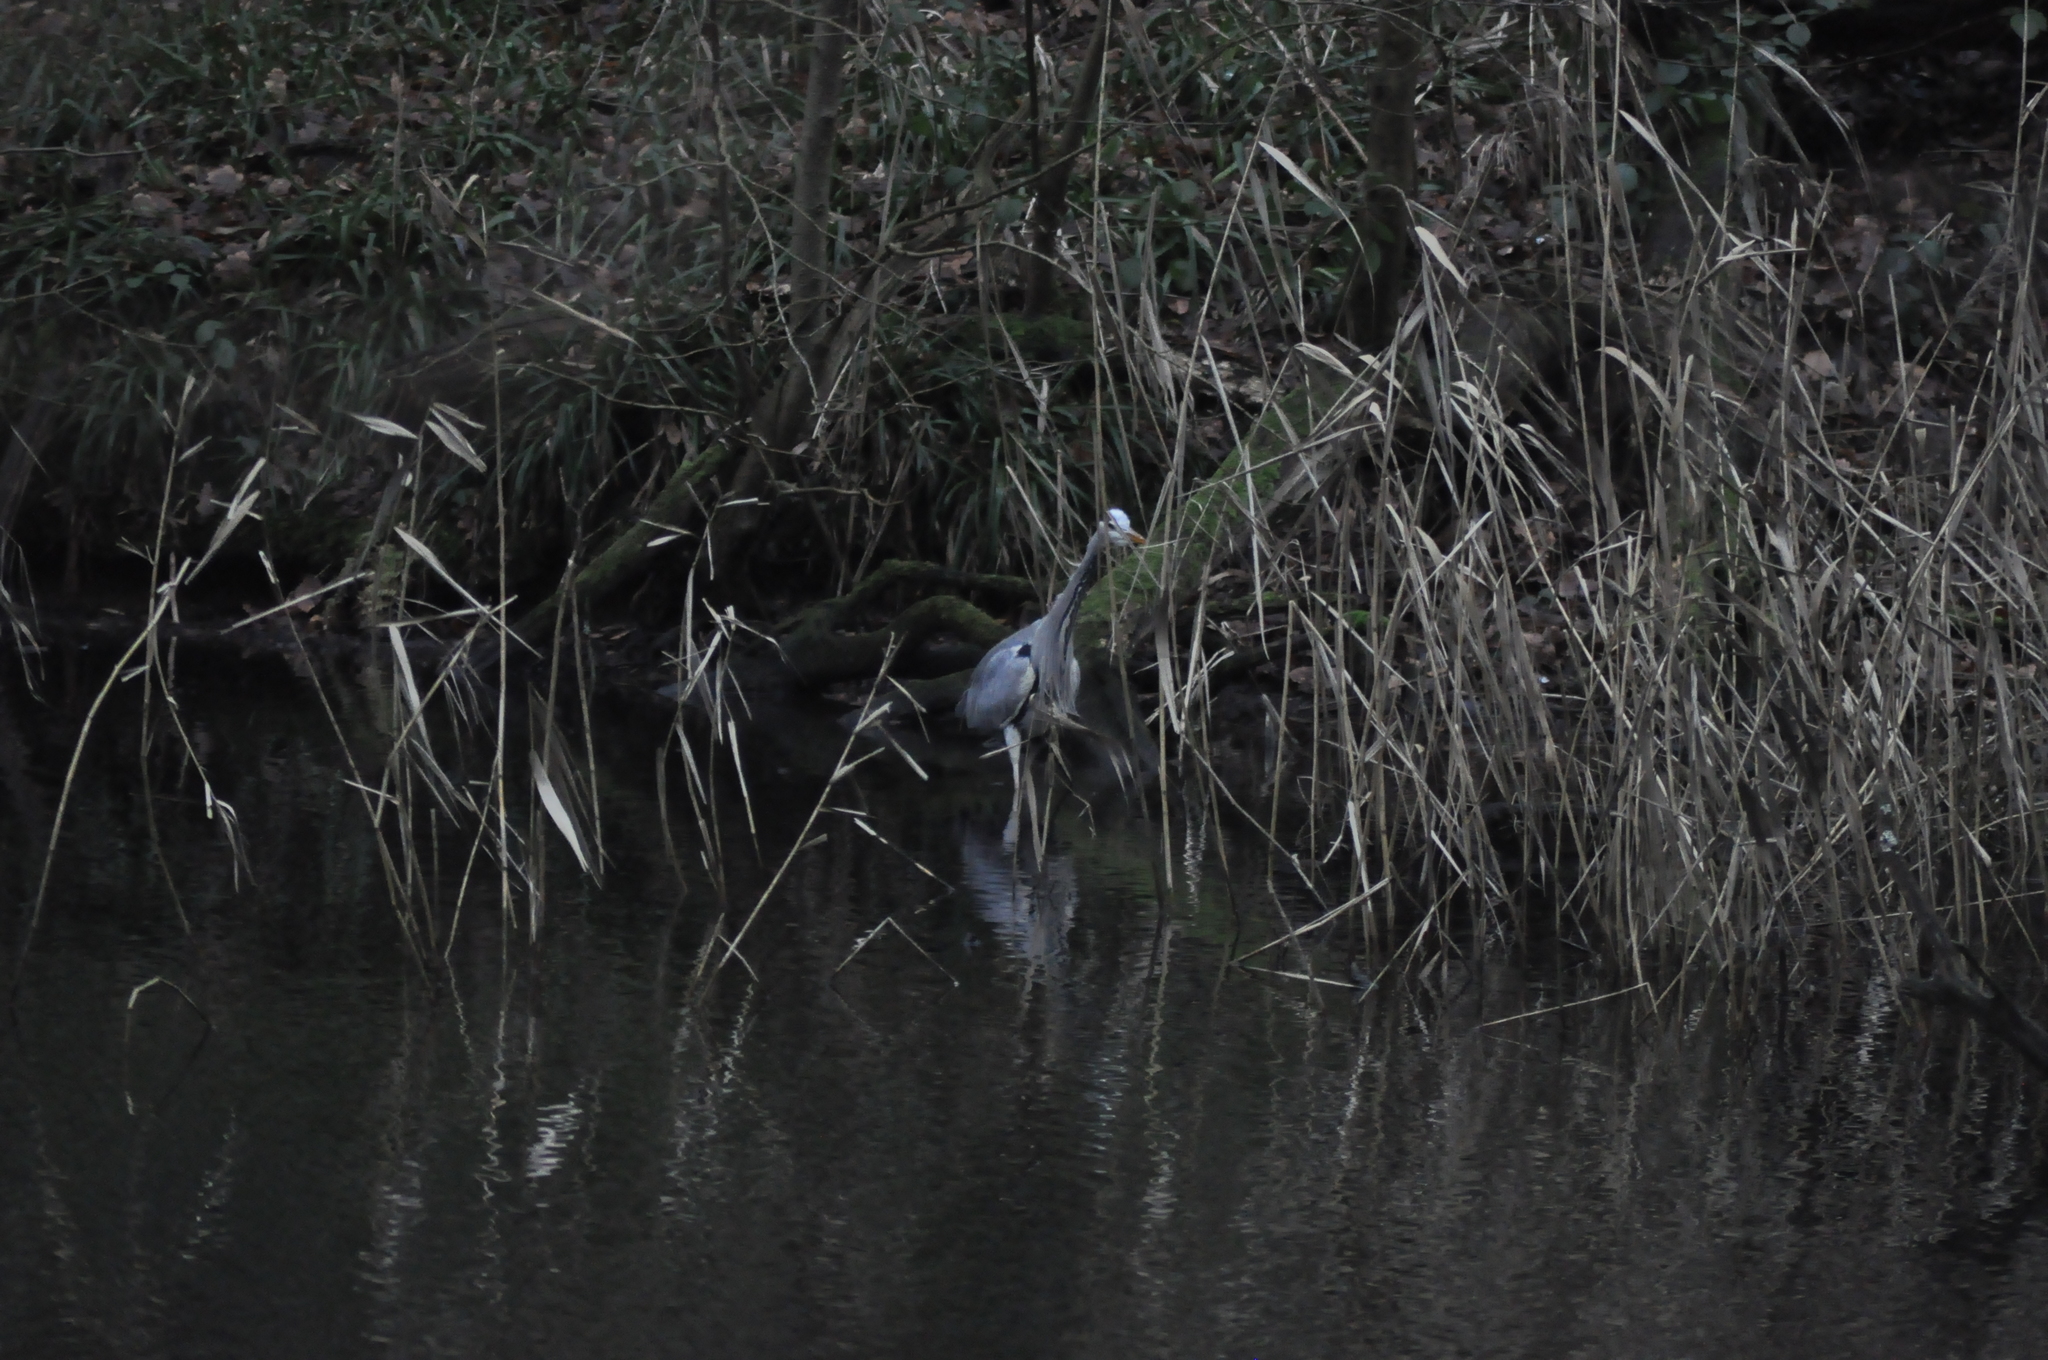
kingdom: Animalia
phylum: Chordata
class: Aves
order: Pelecaniformes
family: Ardeidae
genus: Ardea
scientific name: Ardea cinerea
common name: Grey heron
